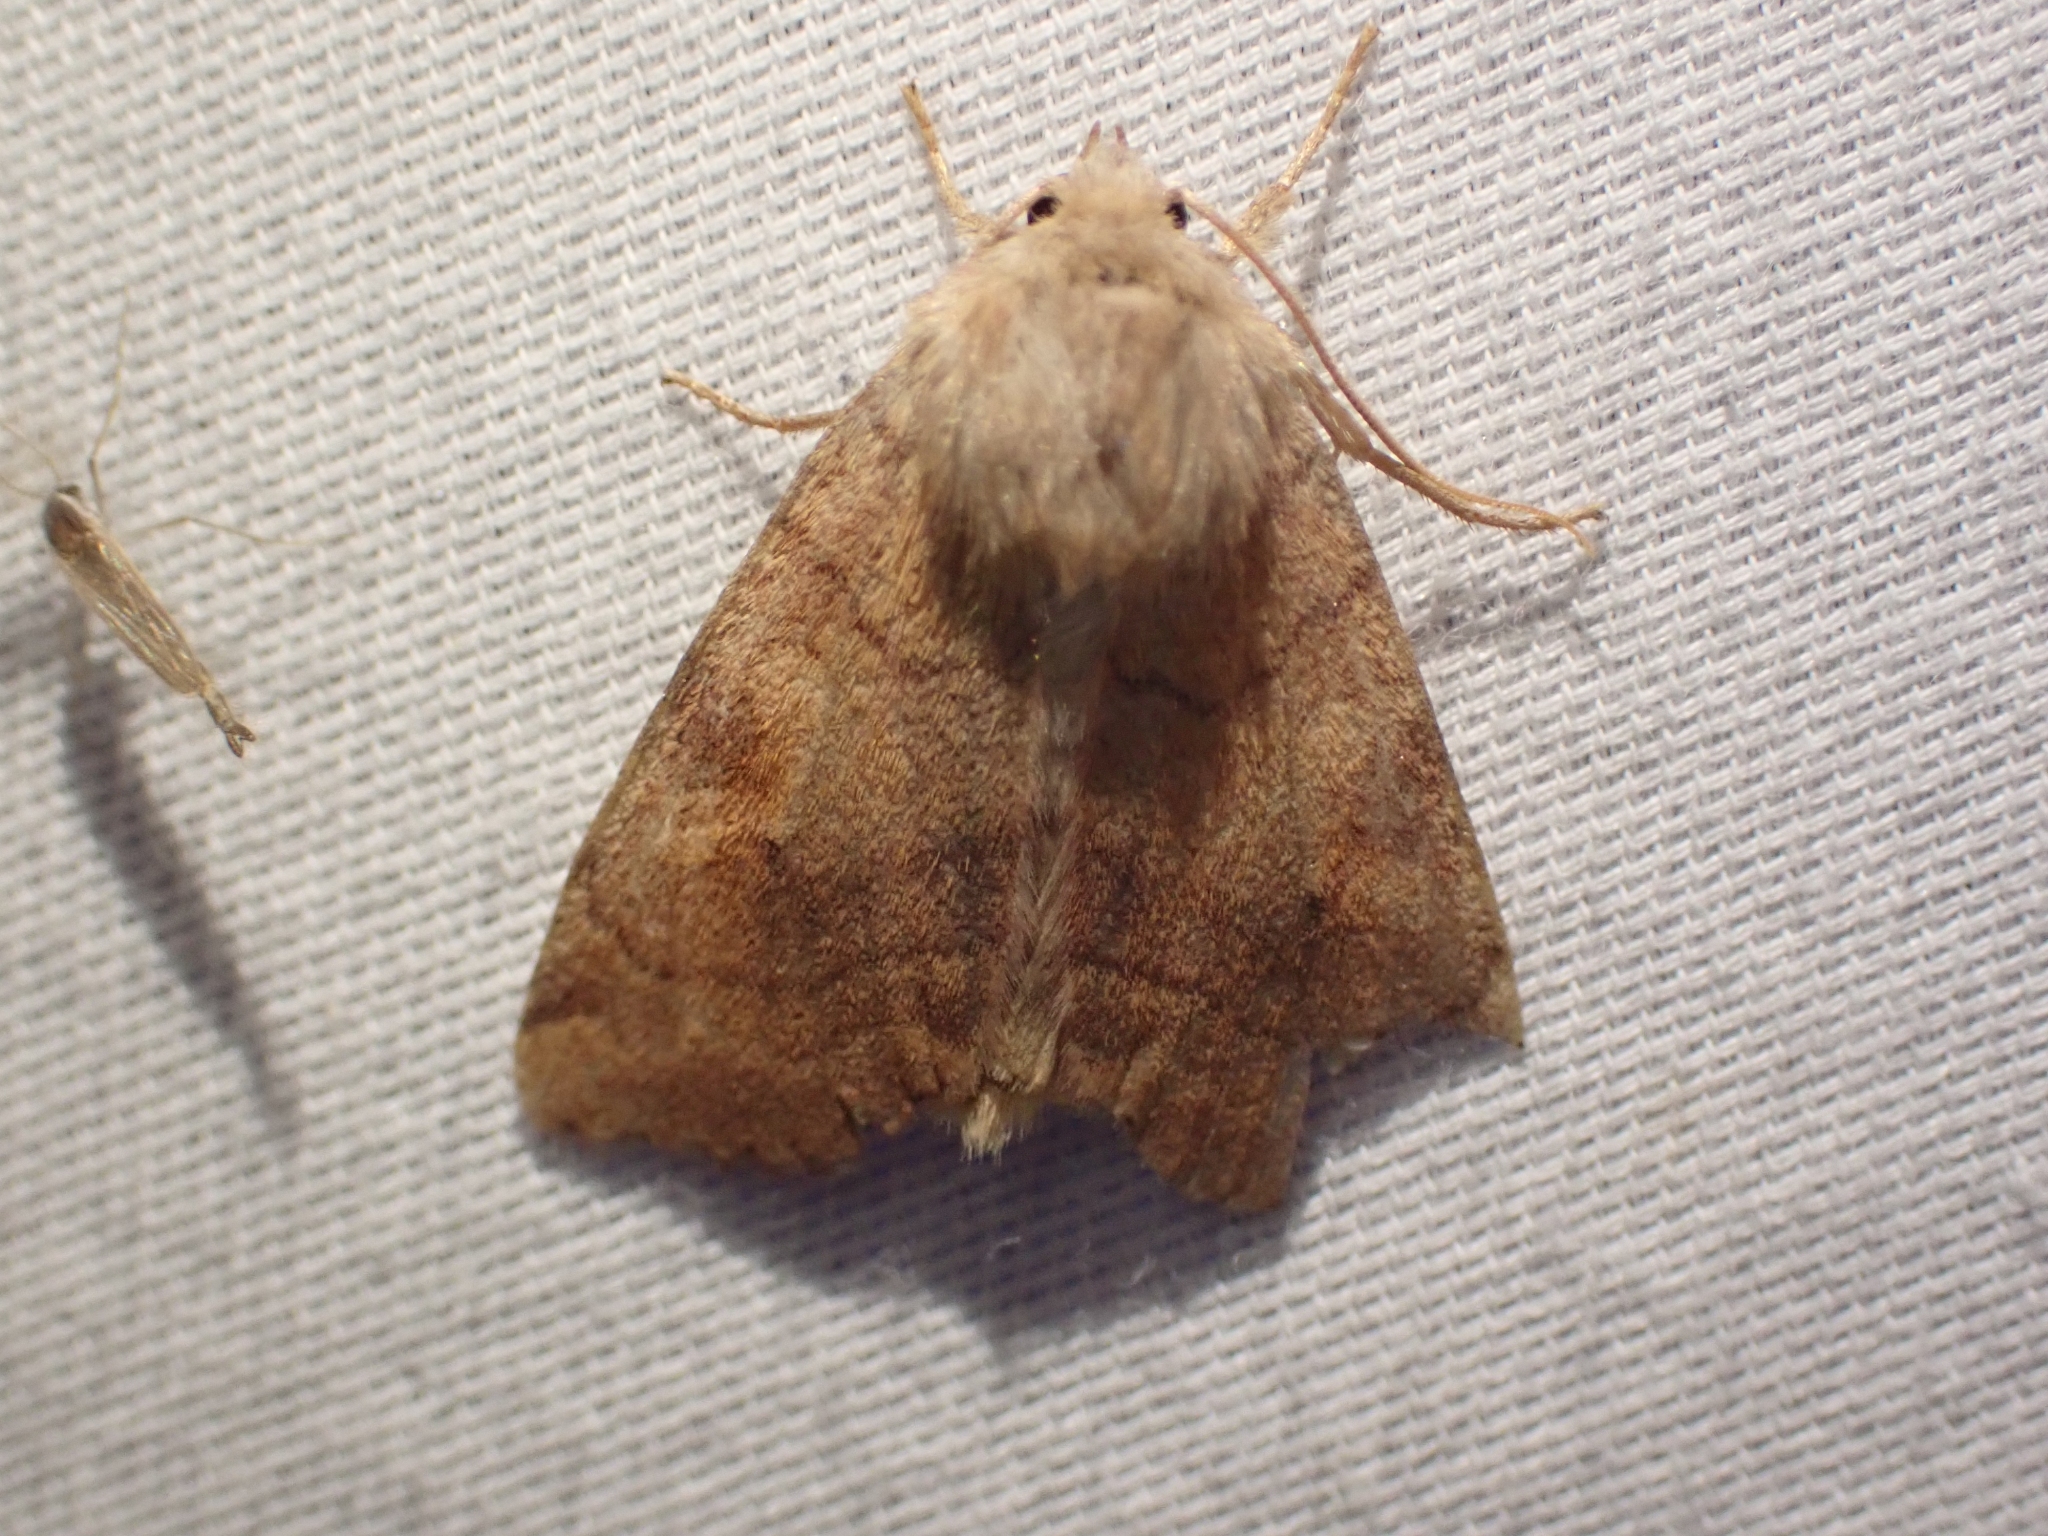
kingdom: Animalia
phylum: Arthropoda
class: Insecta
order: Lepidoptera
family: Noctuidae
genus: Enargia
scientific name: Enargia decolor
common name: Aspen twoleaf tier moth
